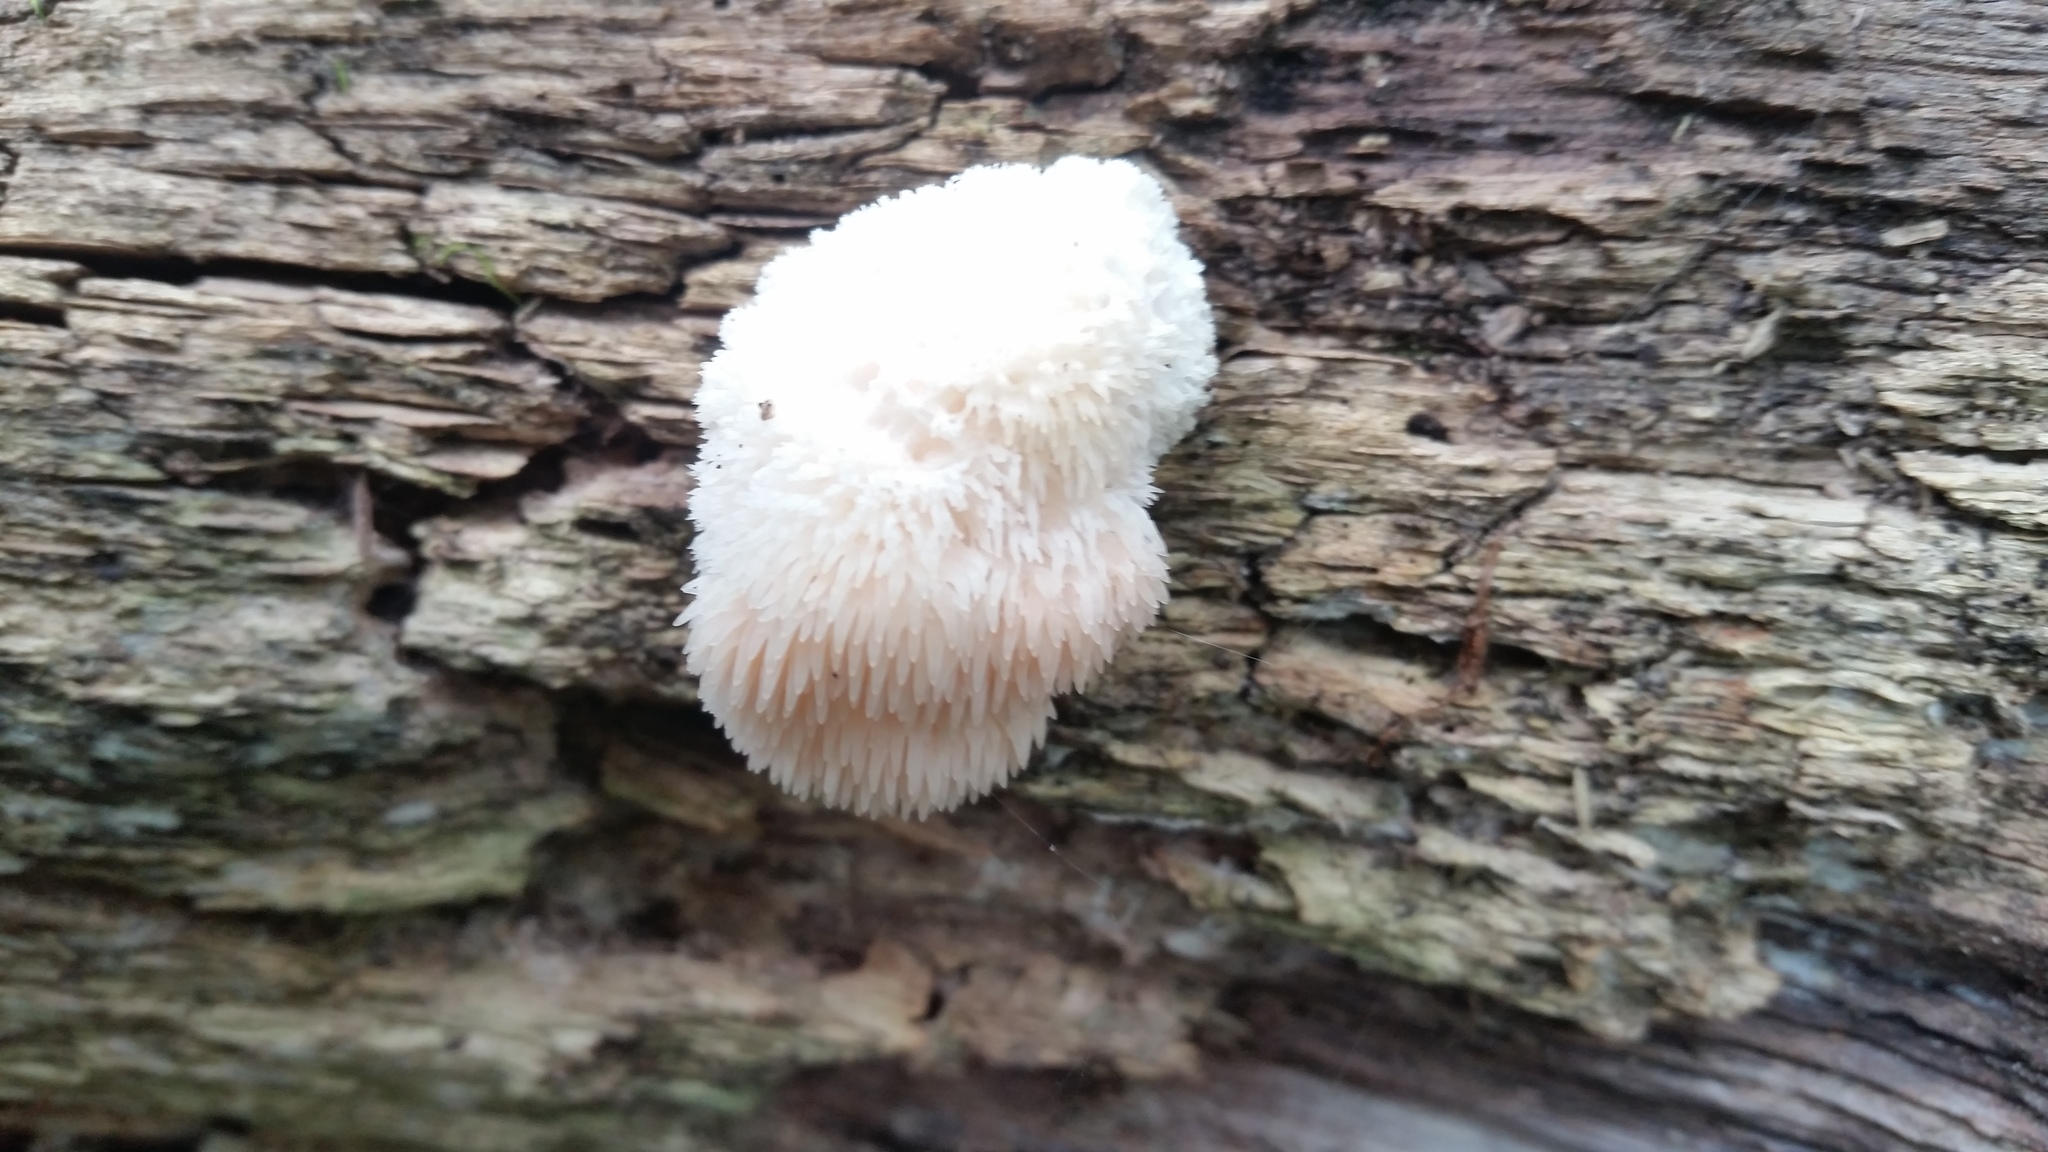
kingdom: Fungi
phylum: Basidiomycota
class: Agaricomycetes
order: Russulales
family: Hericiaceae
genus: Hericium
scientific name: Hericium erinaceus
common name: Bearded tooth
